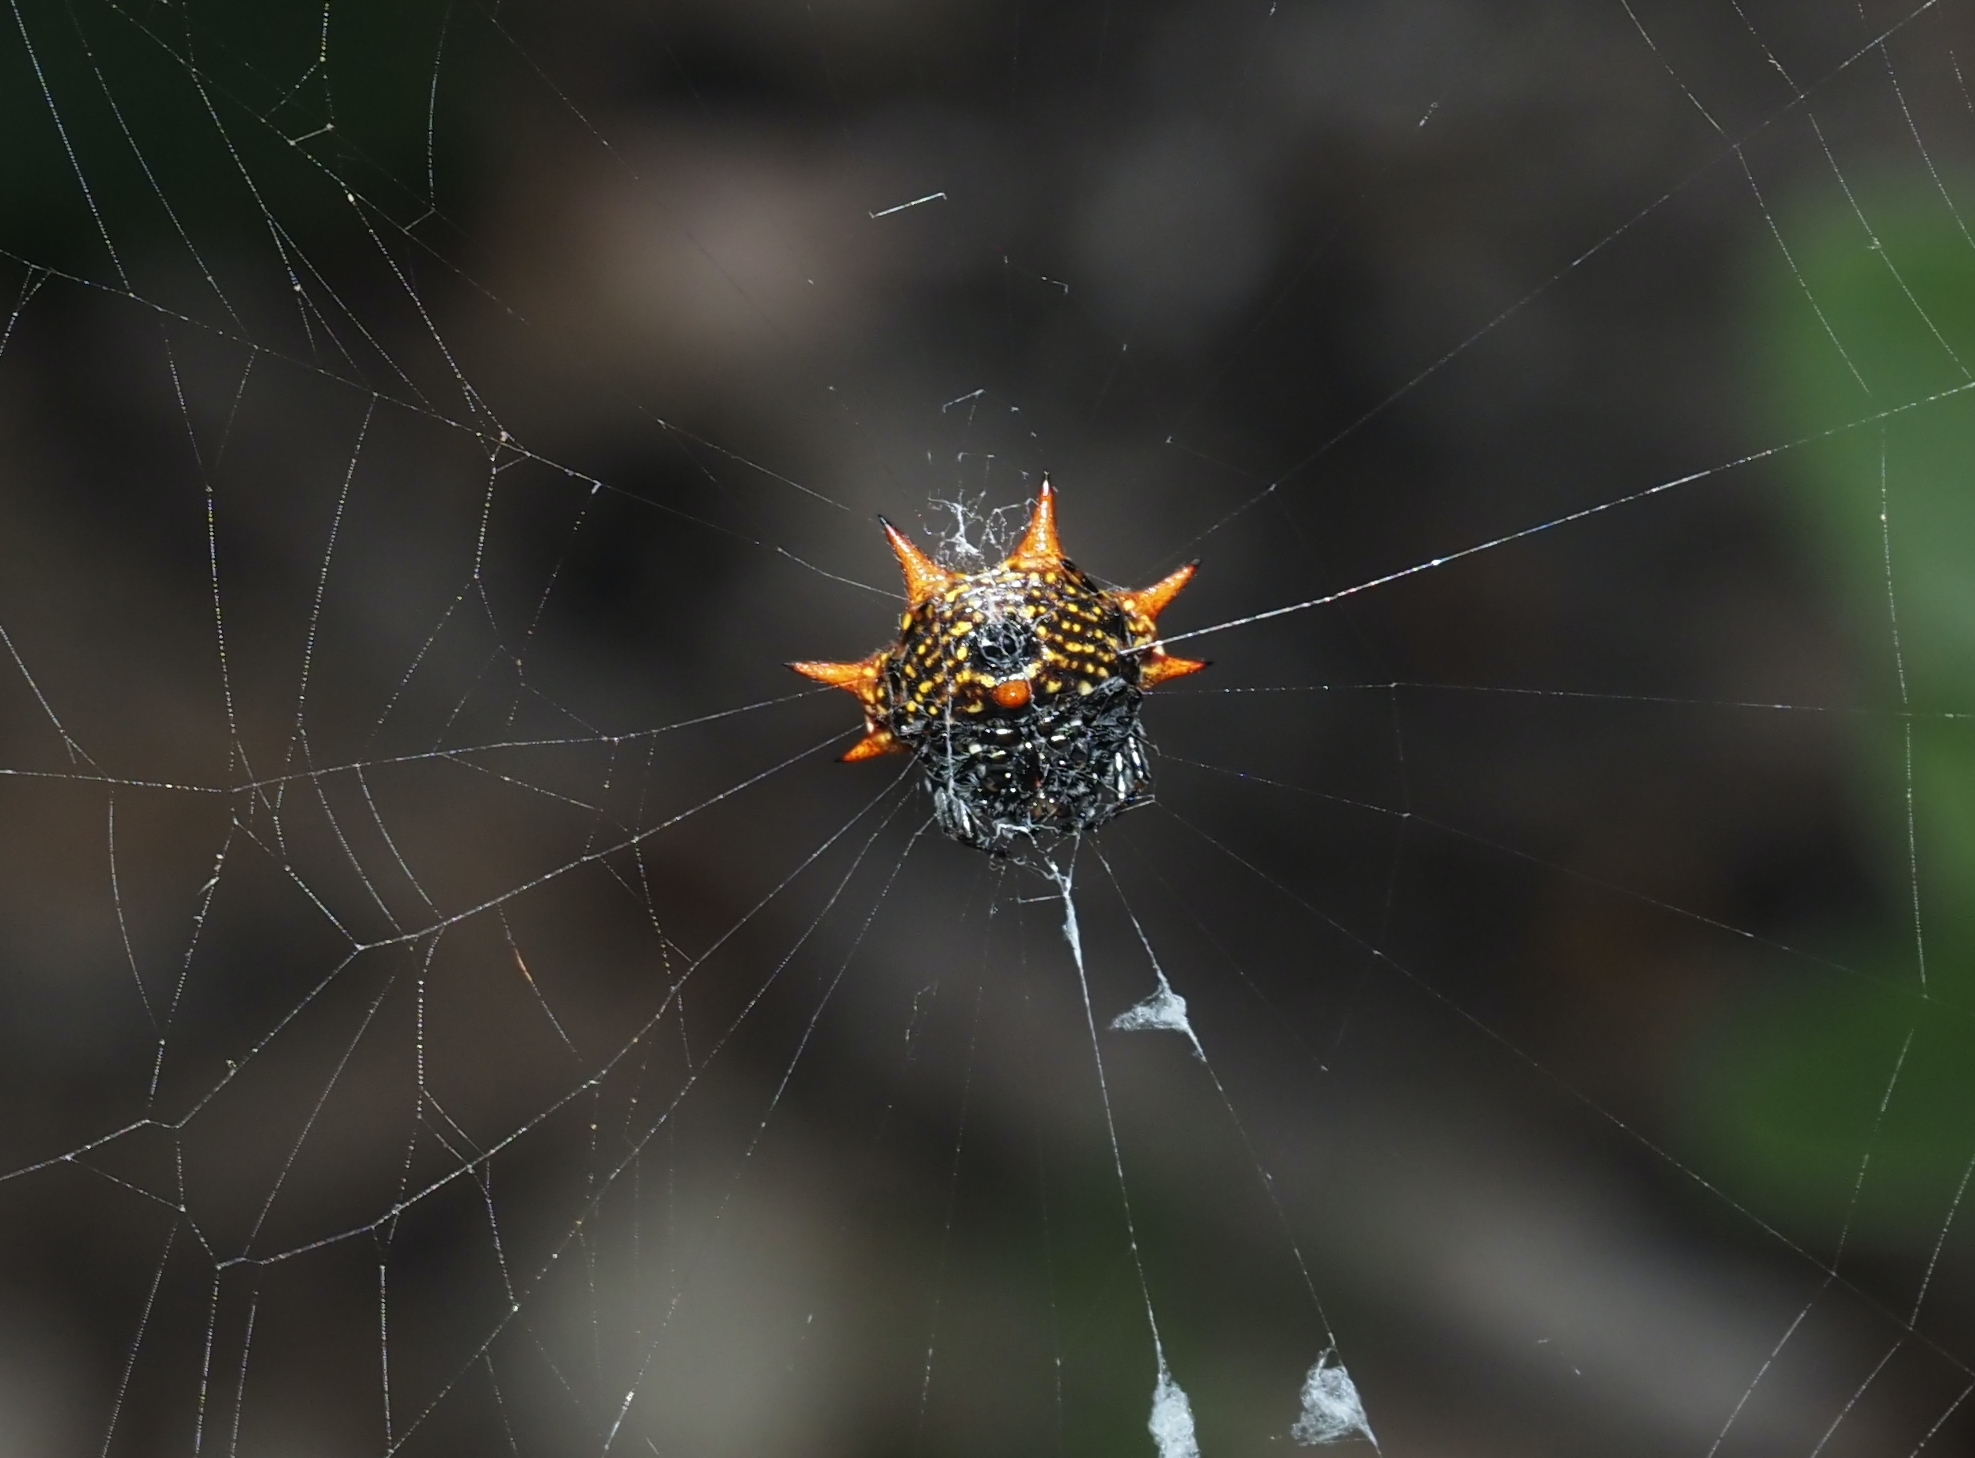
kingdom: Animalia
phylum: Arthropoda
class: Arachnida
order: Araneae
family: Araneidae
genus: Gasteracantha
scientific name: Gasteracantha cancriformis
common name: Orb weavers
